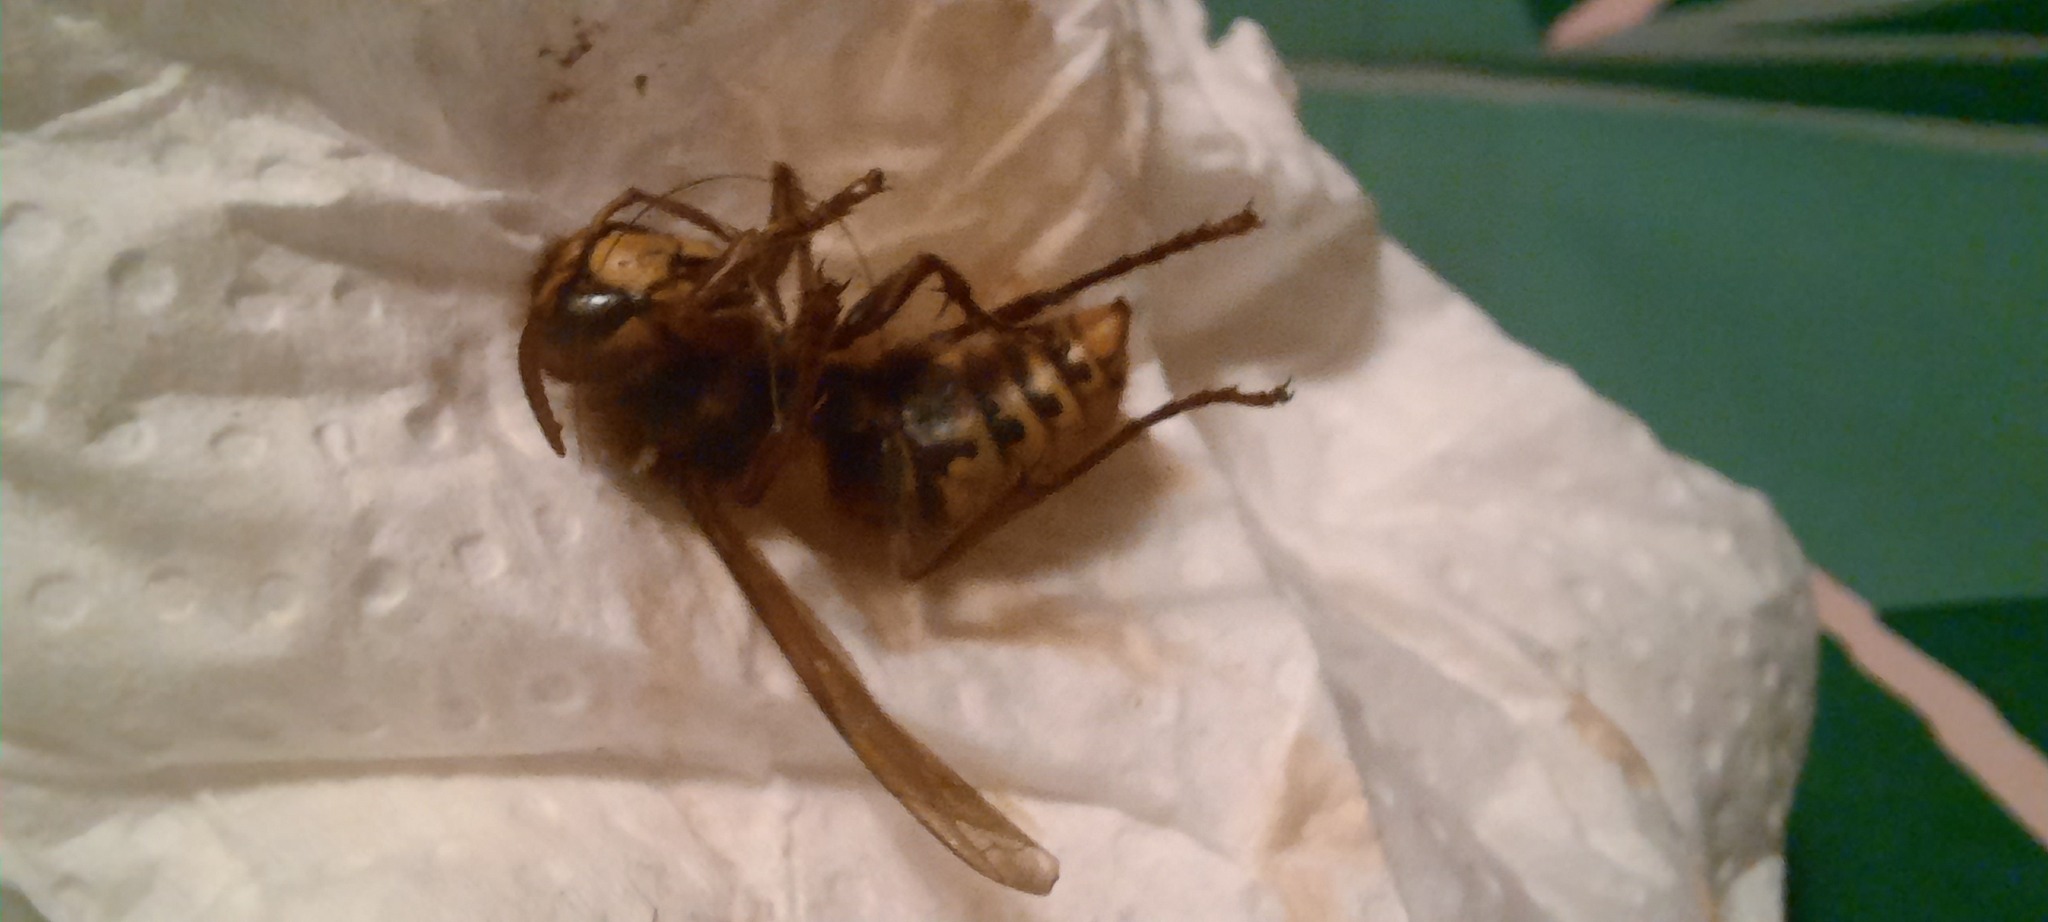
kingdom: Animalia
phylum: Arthropoda
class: Insecta
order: Hymenoptera
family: Vespidae
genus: Vespa
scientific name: Vespa crabro
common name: Hornet
